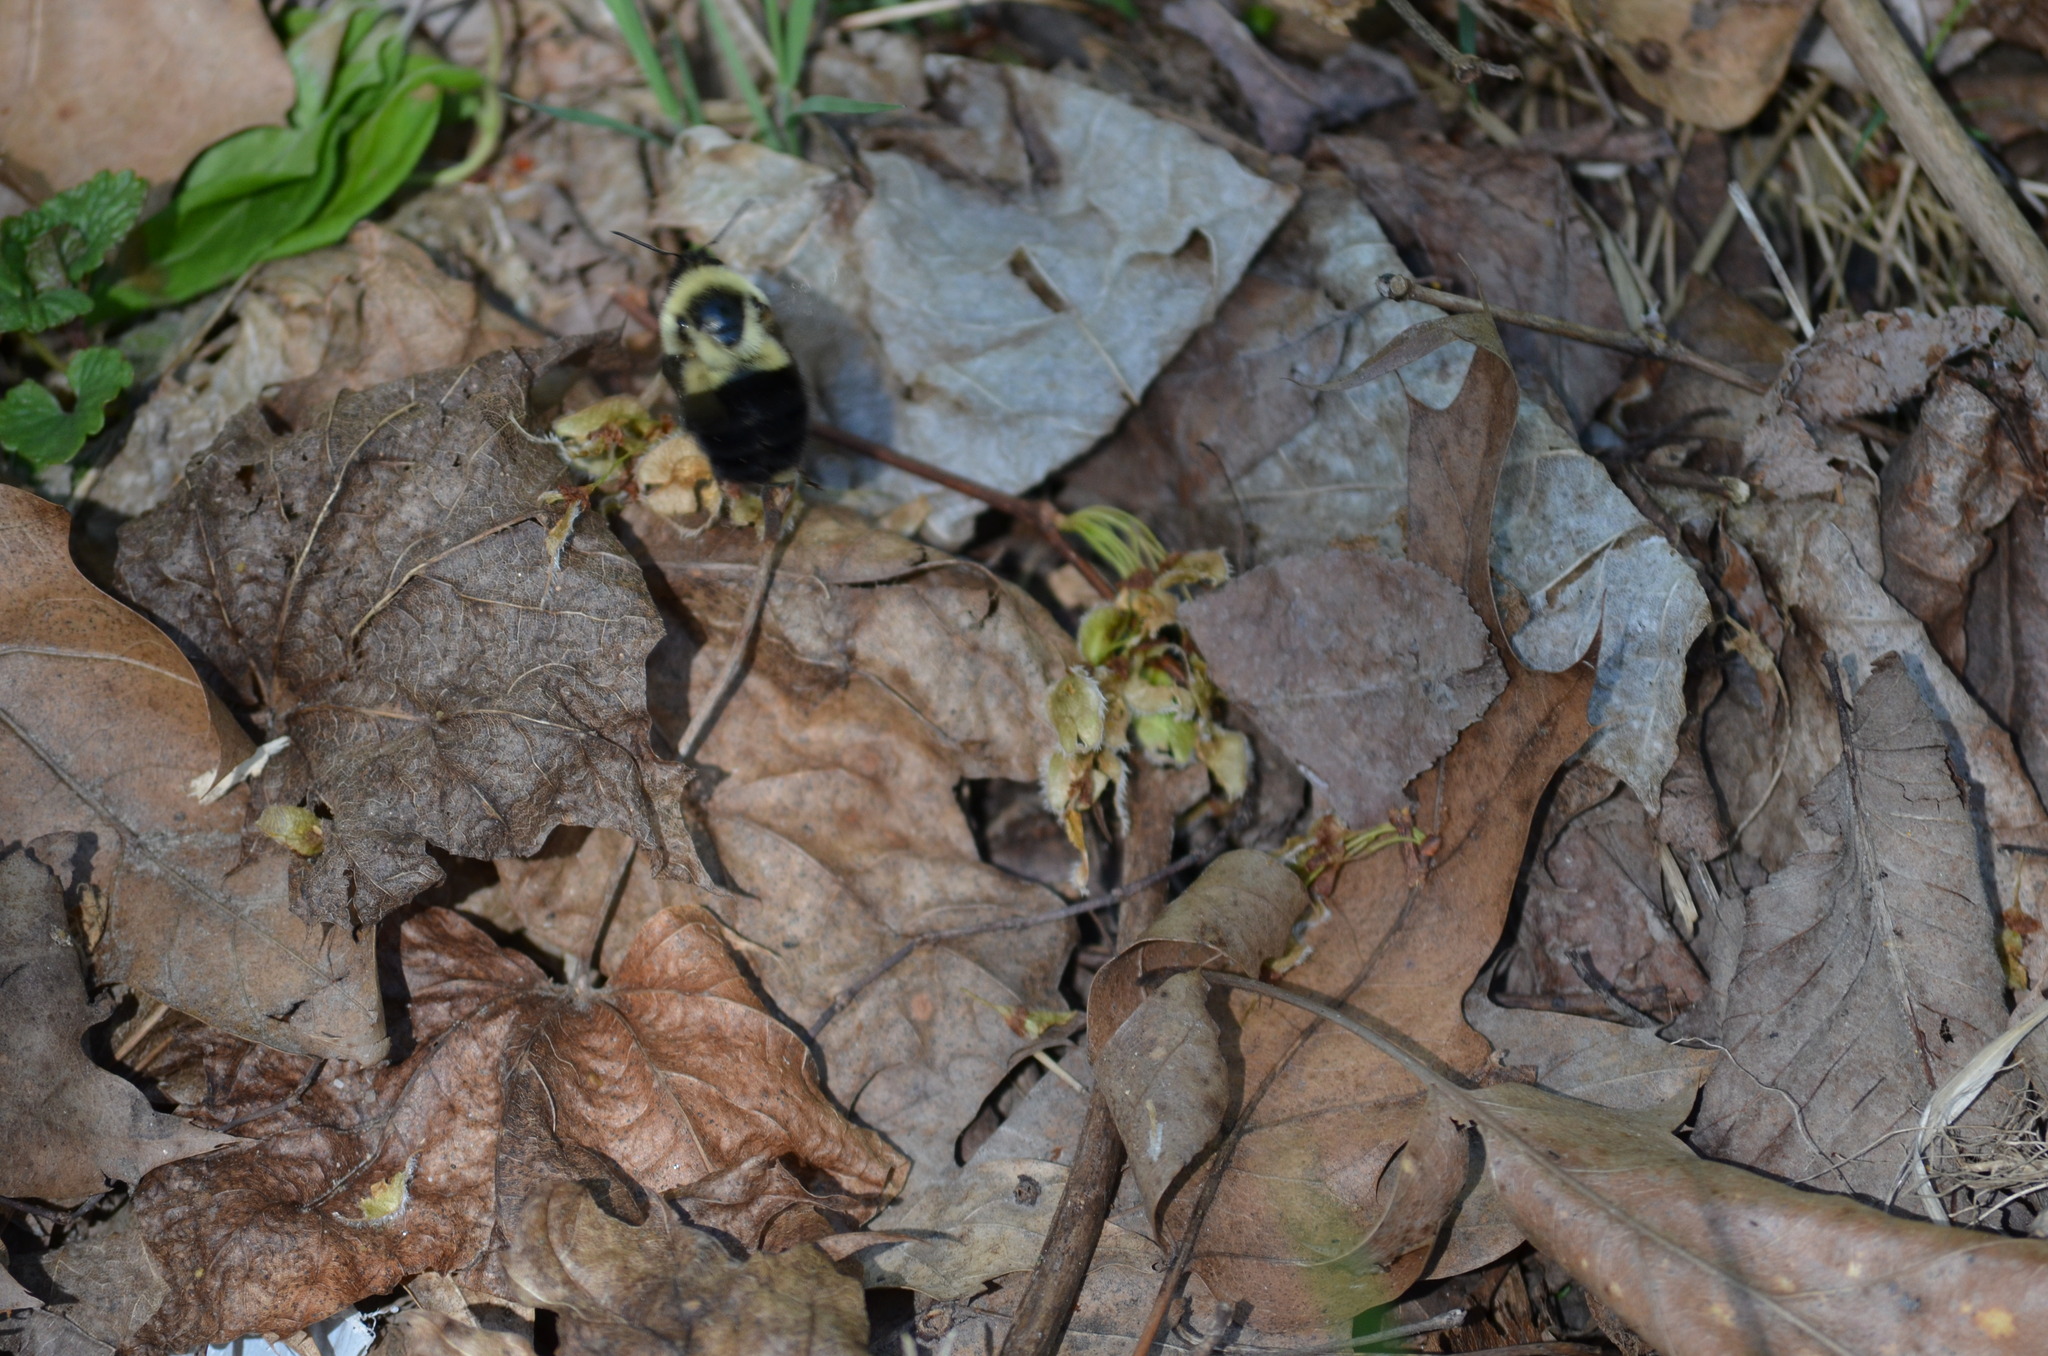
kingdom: Animalia
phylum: Arthropoda
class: Insecta
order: Hymenoptera
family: Apidae
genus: Bombus
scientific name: Bombus impatiens
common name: Common eastern bumble bee
